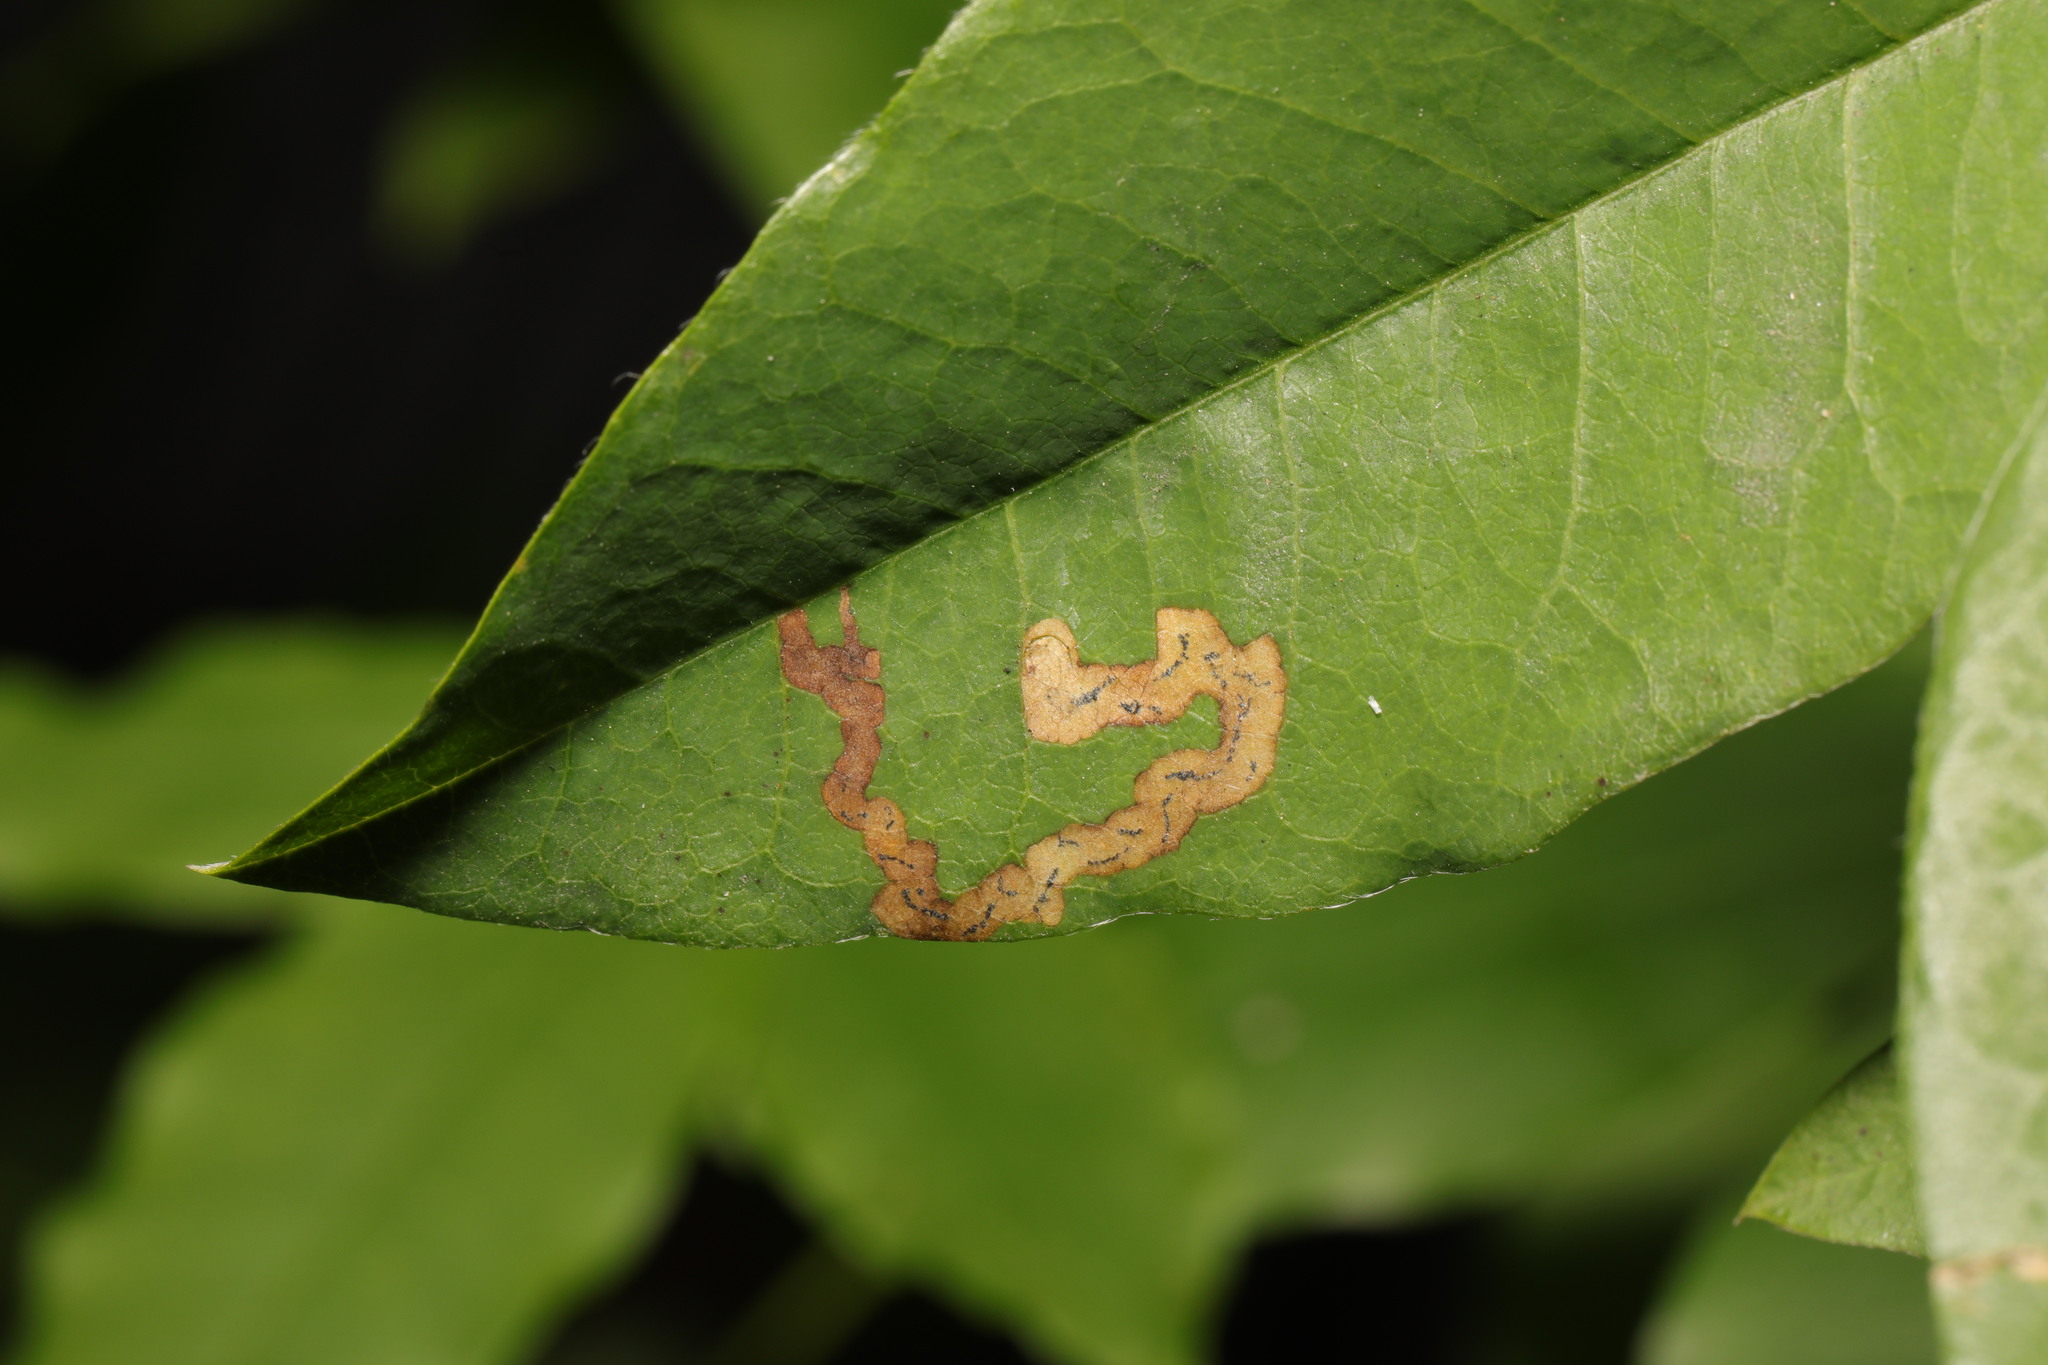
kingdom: Animalia
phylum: Arthropoda
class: Insecta
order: Diptera
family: Agromyzidae
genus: Phytomyza
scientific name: Phytomyza cytisi
